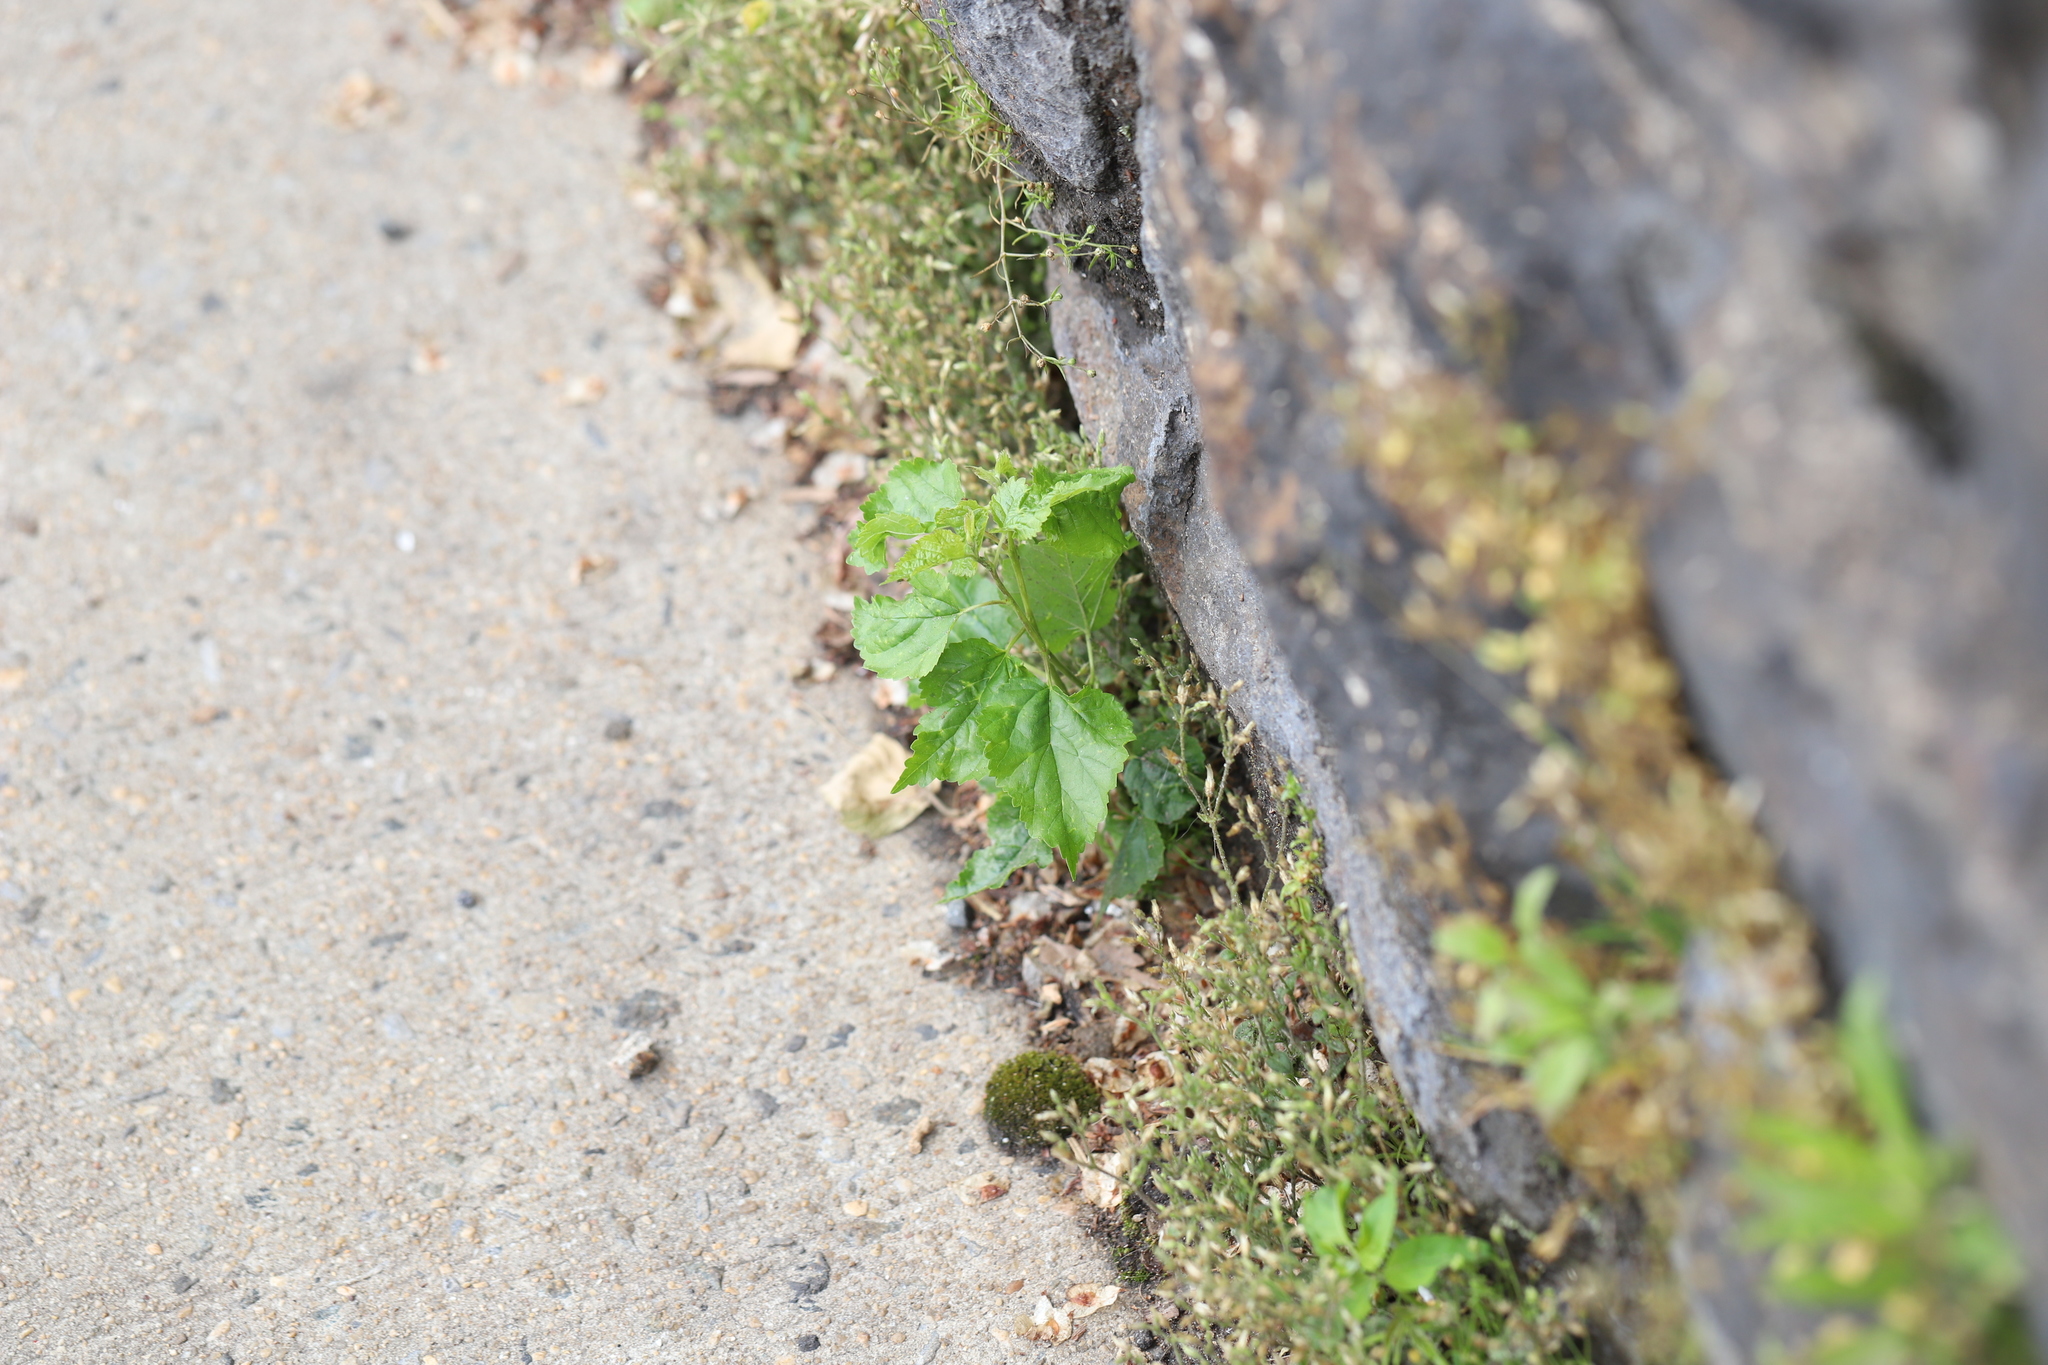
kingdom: Plantae
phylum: Tracheophyta
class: Magnoliopsida
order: Rosales
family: Moraceae
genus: Morus
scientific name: Morus alba
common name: White mulberry
